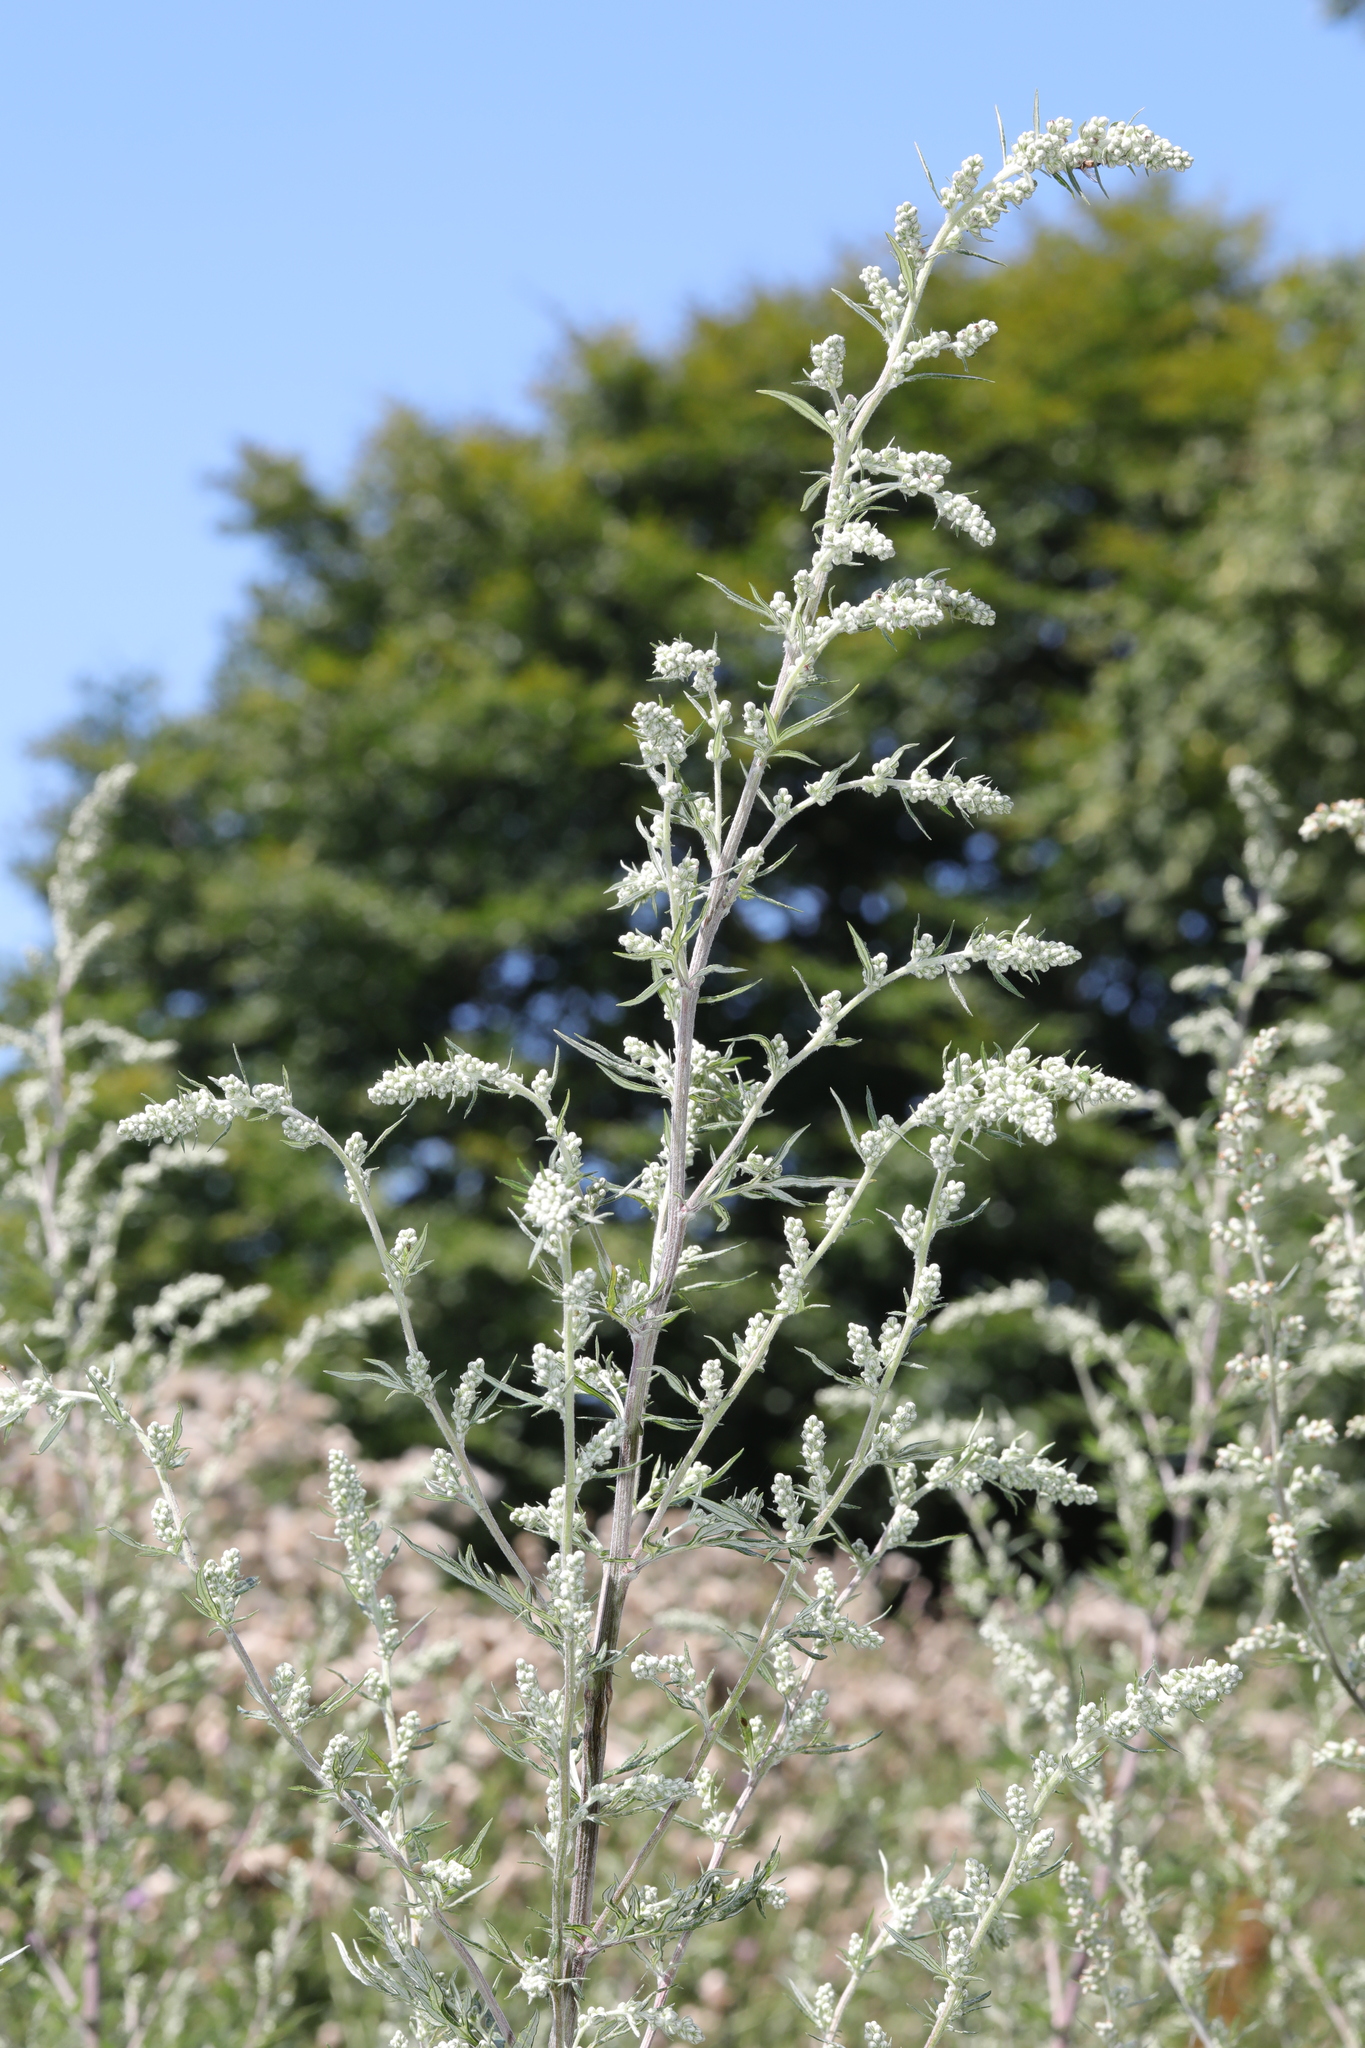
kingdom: Plantae
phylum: Tracheophyta
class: Magnoliopsida
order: Asterales
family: Asteraceae
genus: Artemisia
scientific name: Artemisia vulgaris
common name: Mugwort
